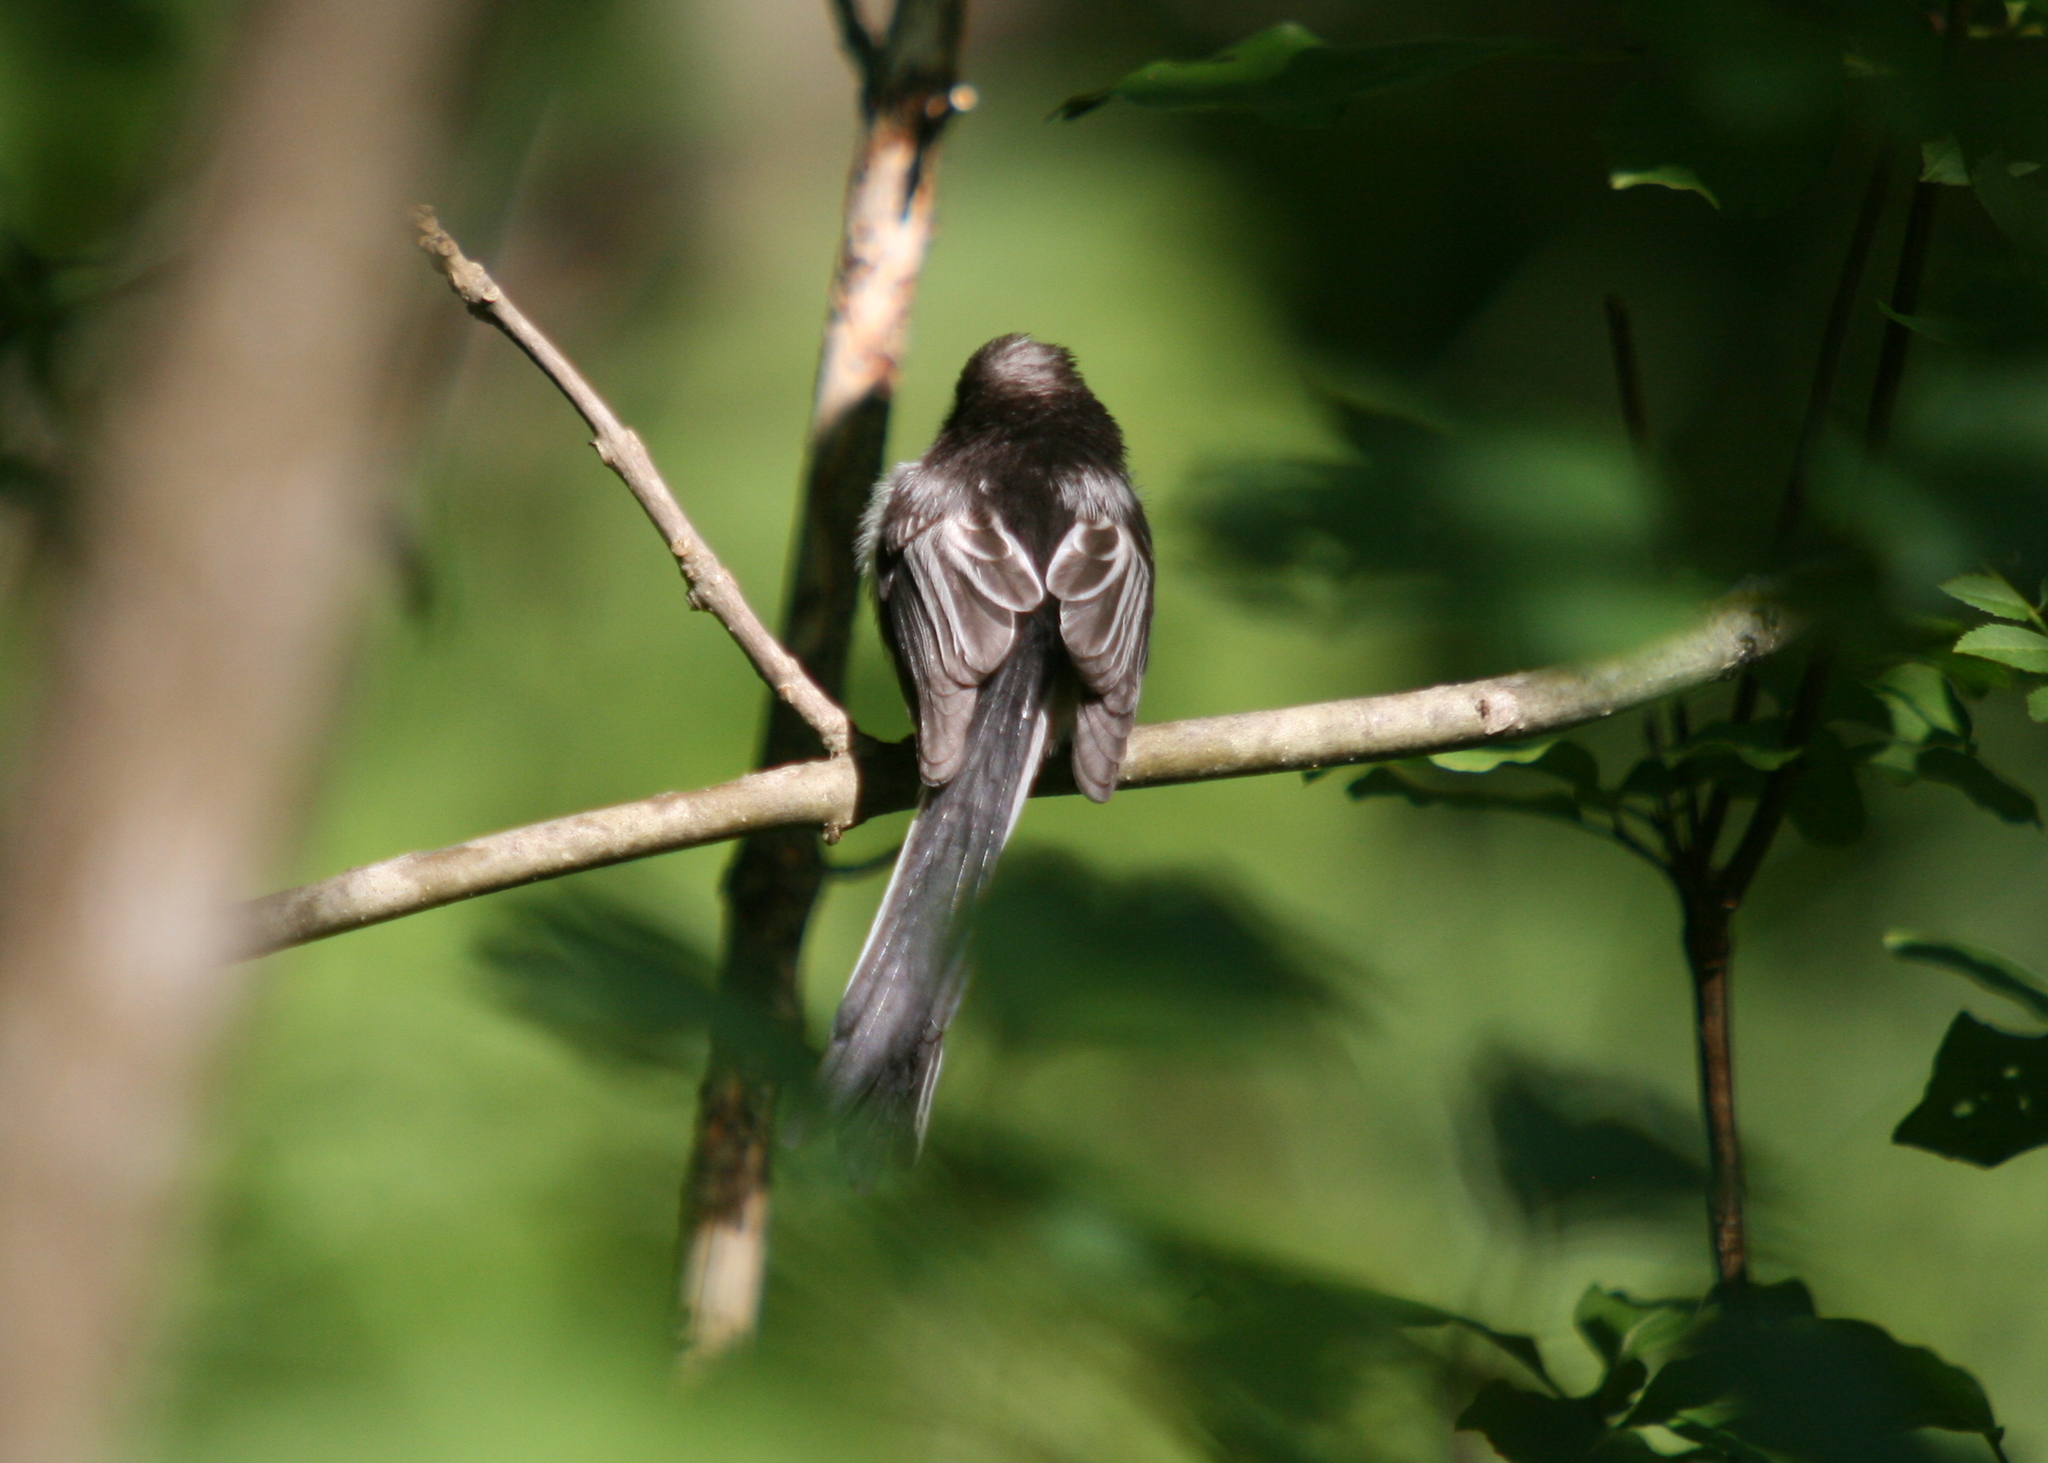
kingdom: Animalia
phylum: Chordata
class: Aves
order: Passeriformes
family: Aegithalidae
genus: Aegithalos
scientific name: Aegithalos caudatus
